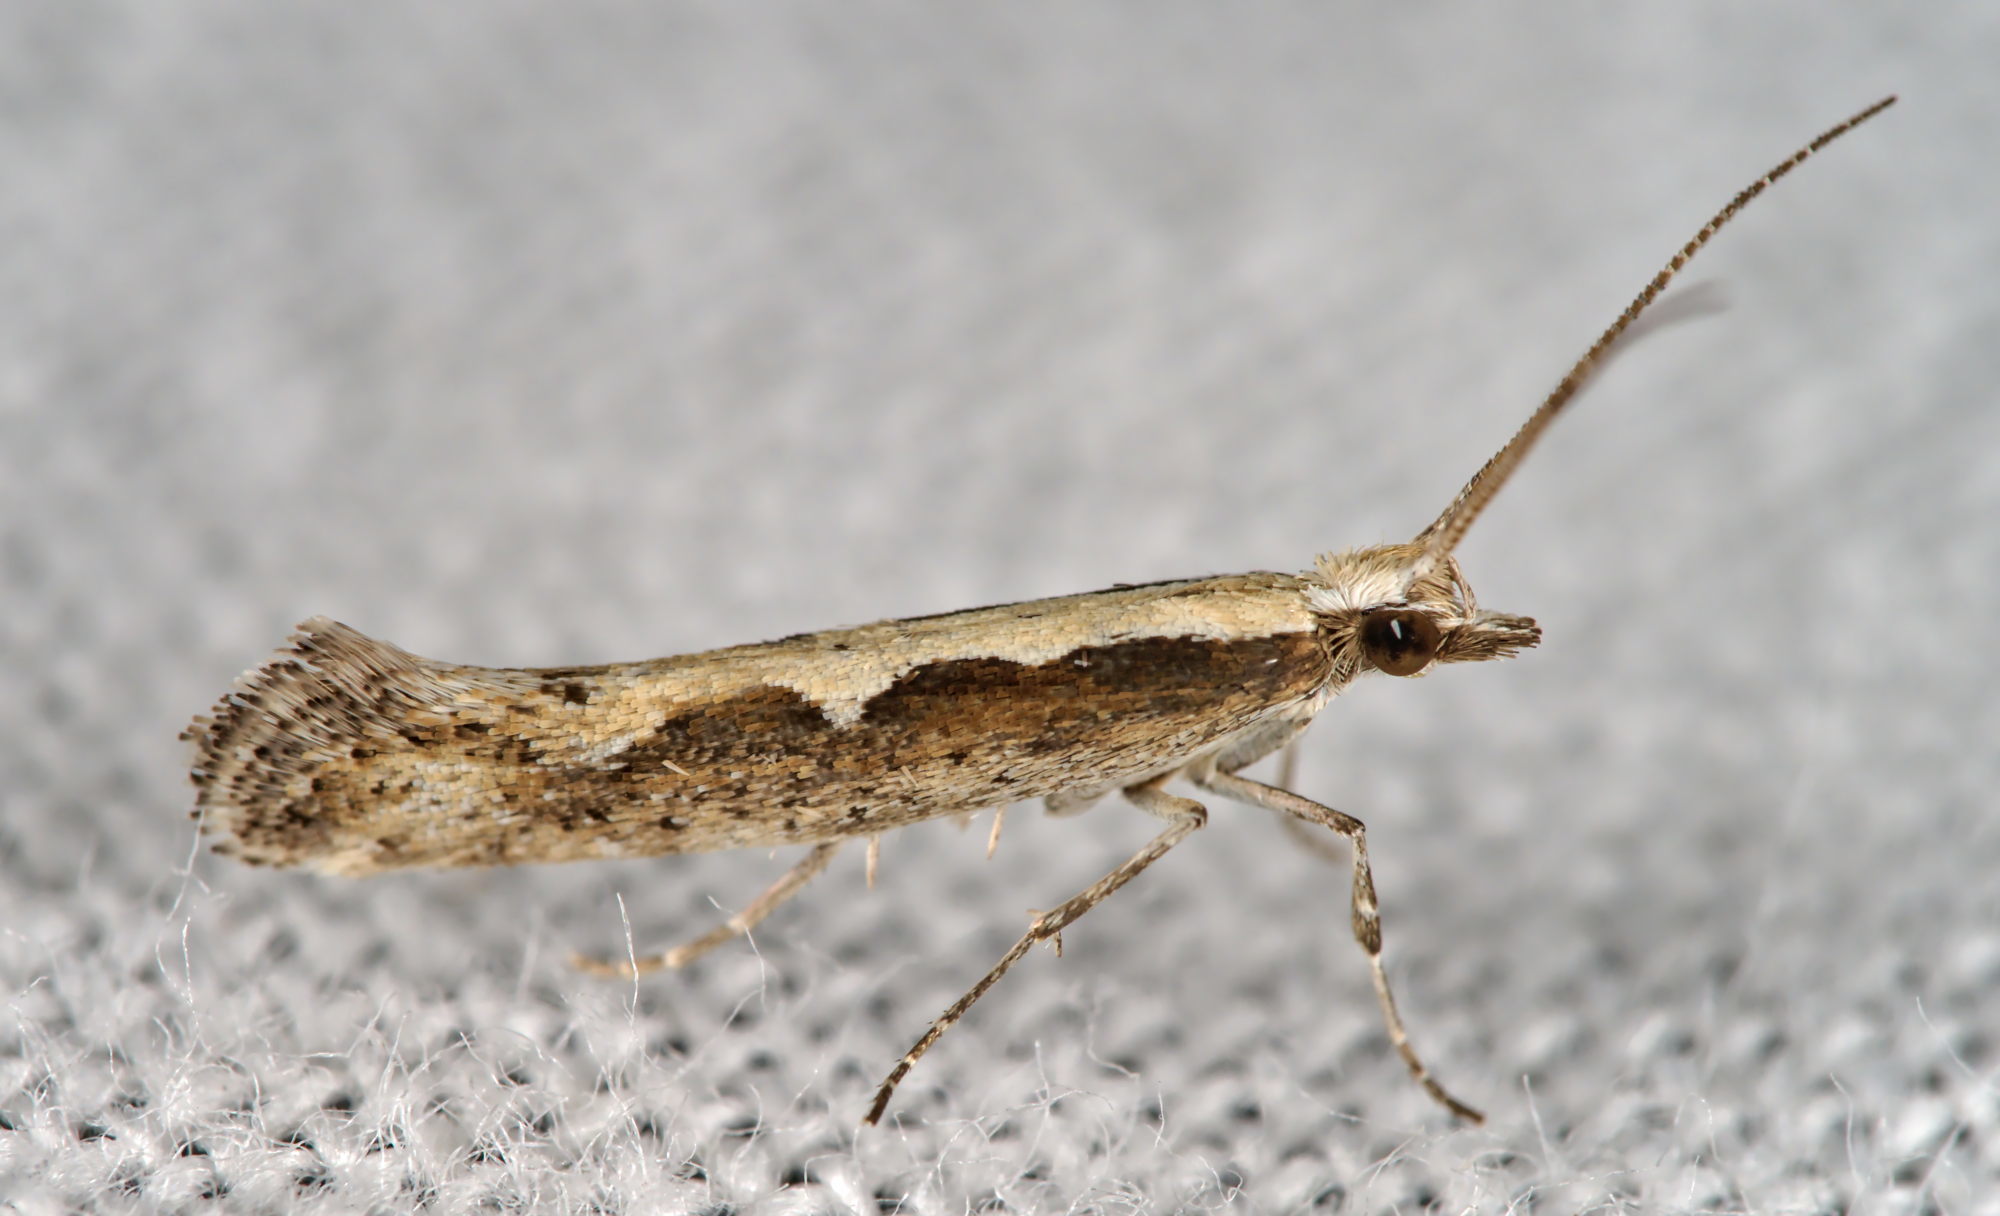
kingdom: Animalia
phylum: Arthropoda
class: Insecta
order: Lepidoptera
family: Plutellidae
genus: Plutella
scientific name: Plutella xylostella
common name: Diamond-back moth
